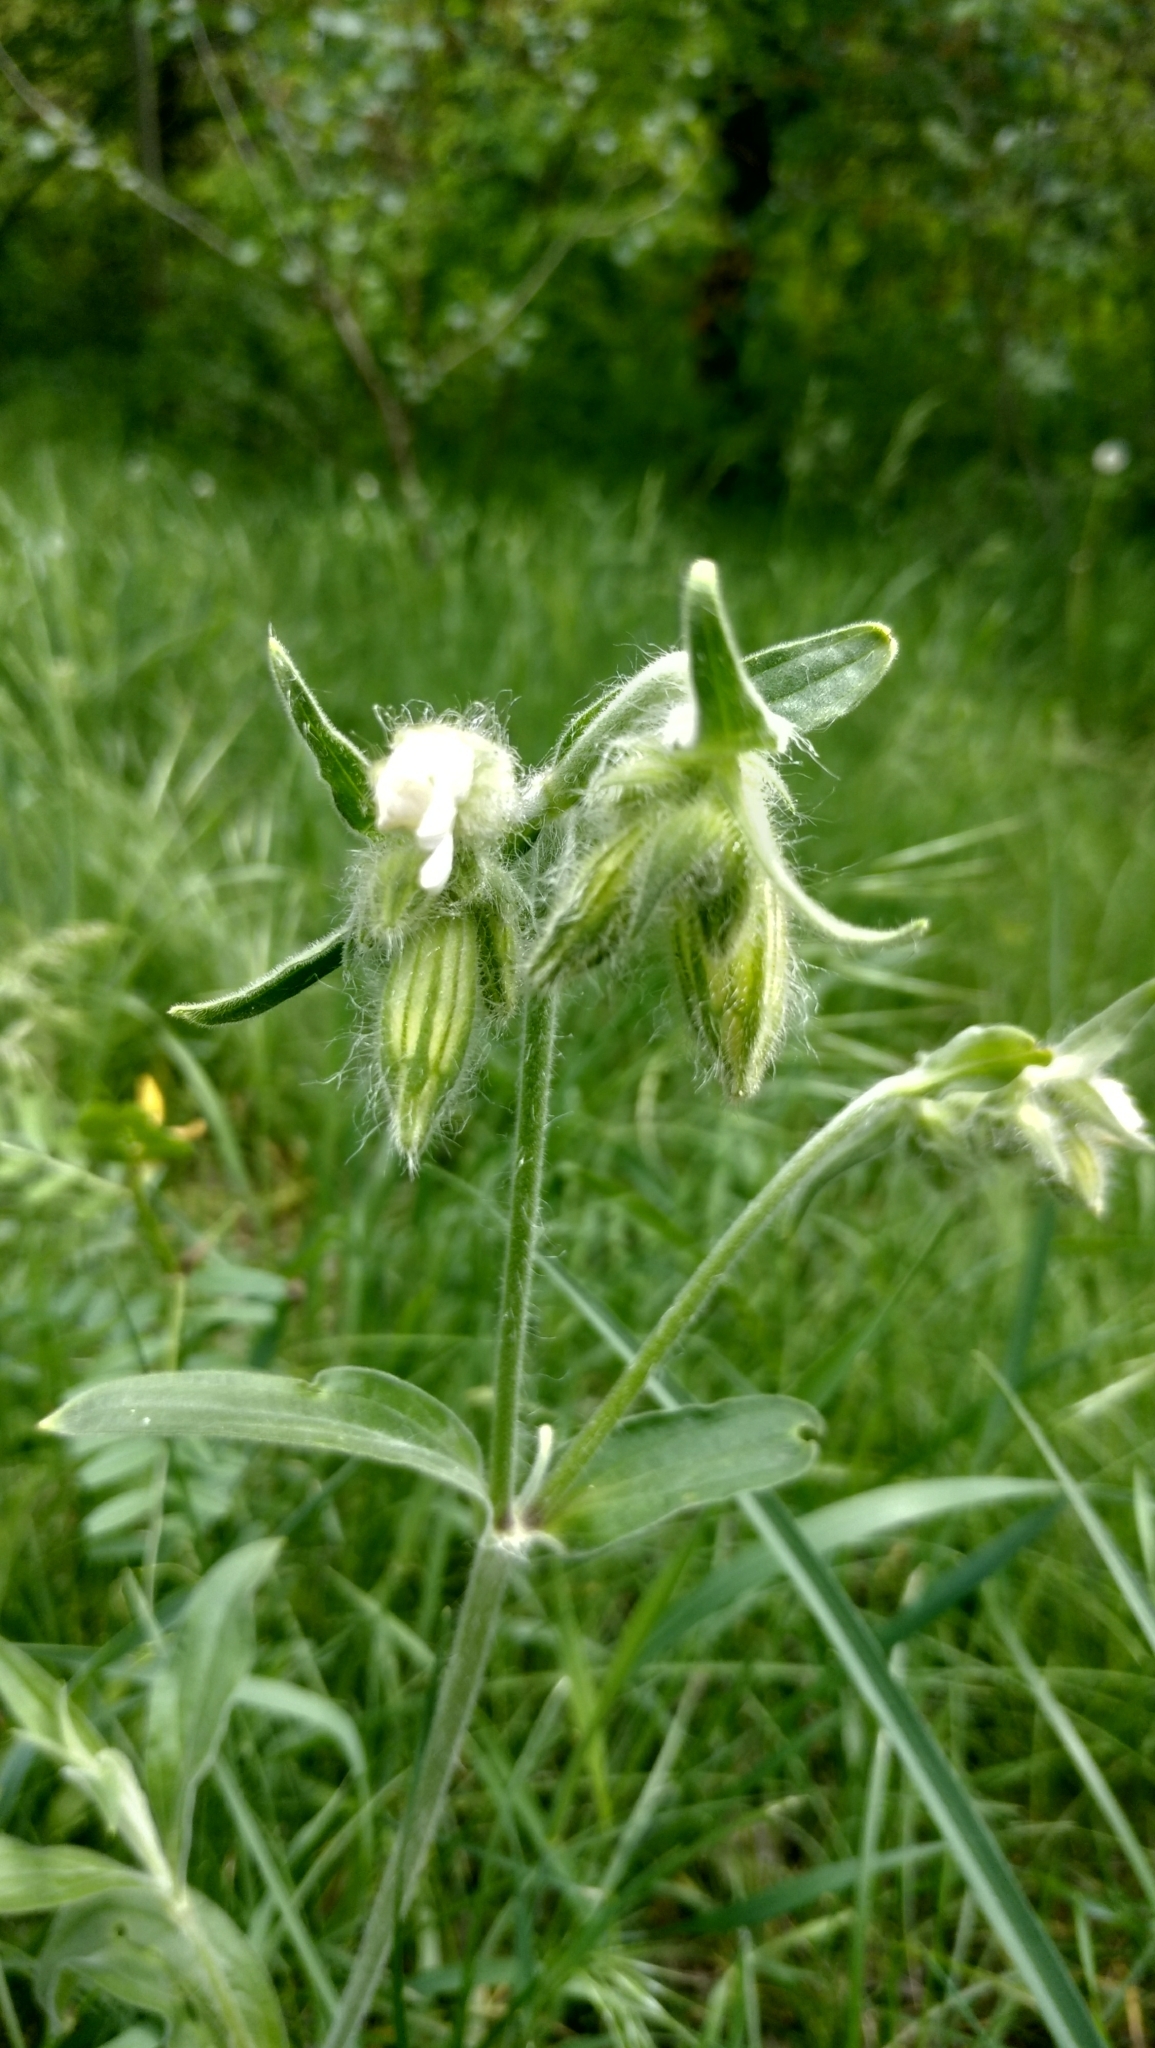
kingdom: Plantae
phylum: Tracheophyta
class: Magnoliopsida
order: Caryophyllales
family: Caryophyllaceae
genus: Silene
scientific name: Silene latifolia
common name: White campion
